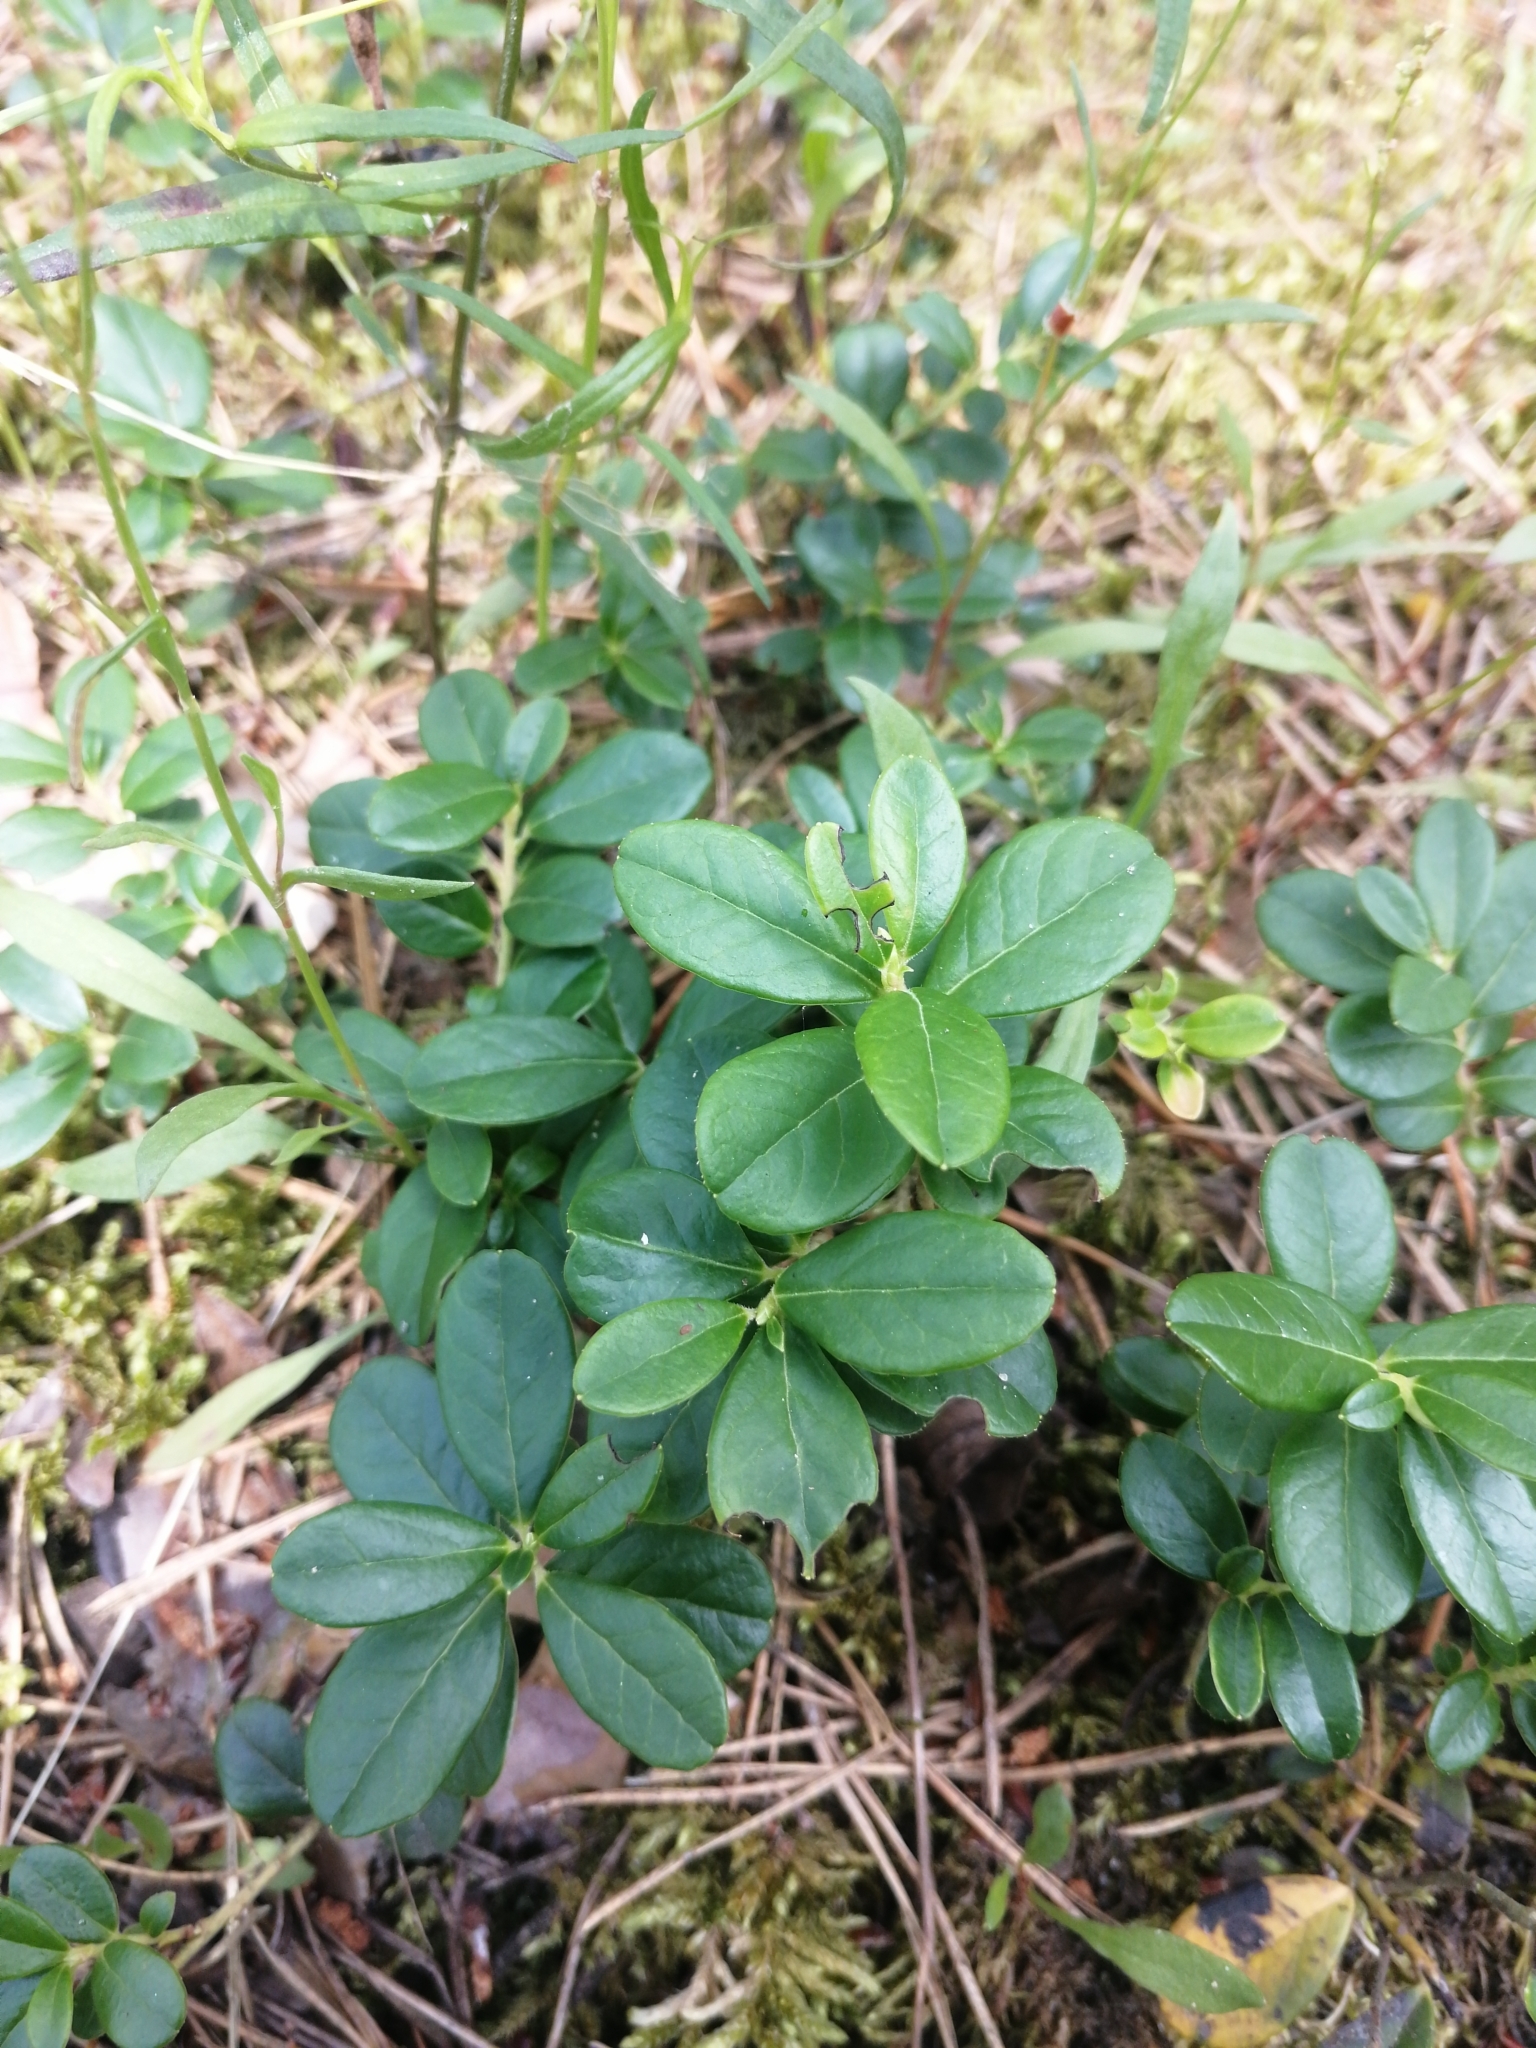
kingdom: Plantae
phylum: Tracheophyta
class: Magnoliopsida
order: Ericales
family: Ericaceae
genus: Vaccinium
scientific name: Vaccinium vitis-idaea
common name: Cowberry
